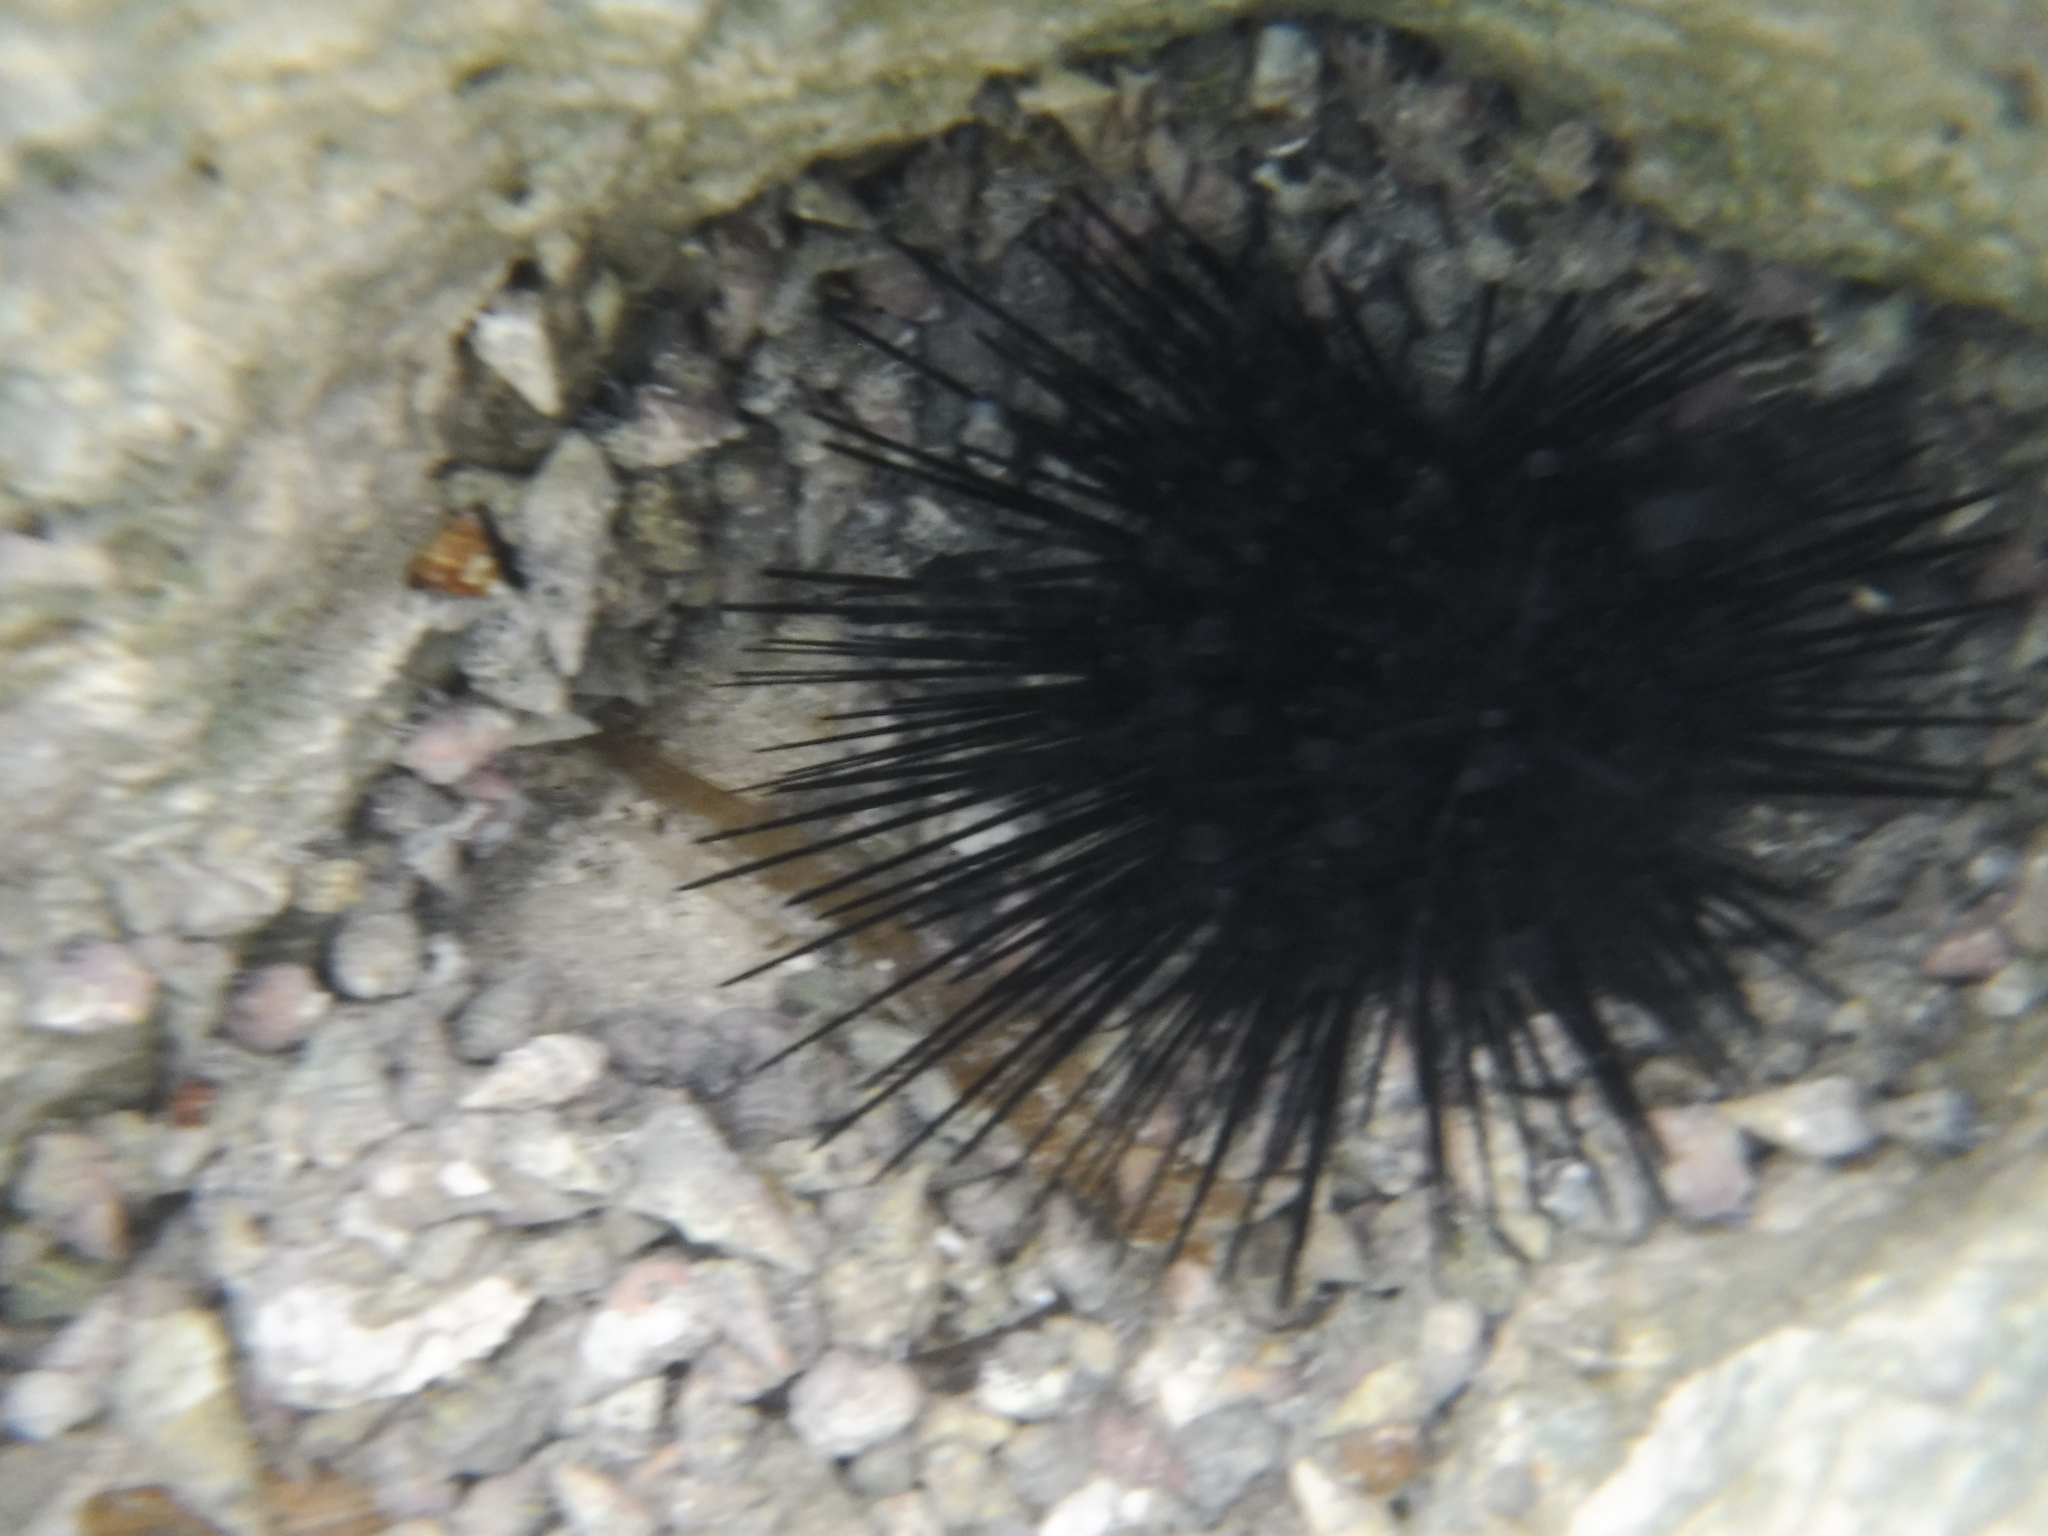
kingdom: Animalia
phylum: Echinodermata
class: Echinoidea
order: Diadematoida
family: Diadematidae
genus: Diadema
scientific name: Diadema antillarum
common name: Spiny urchin
